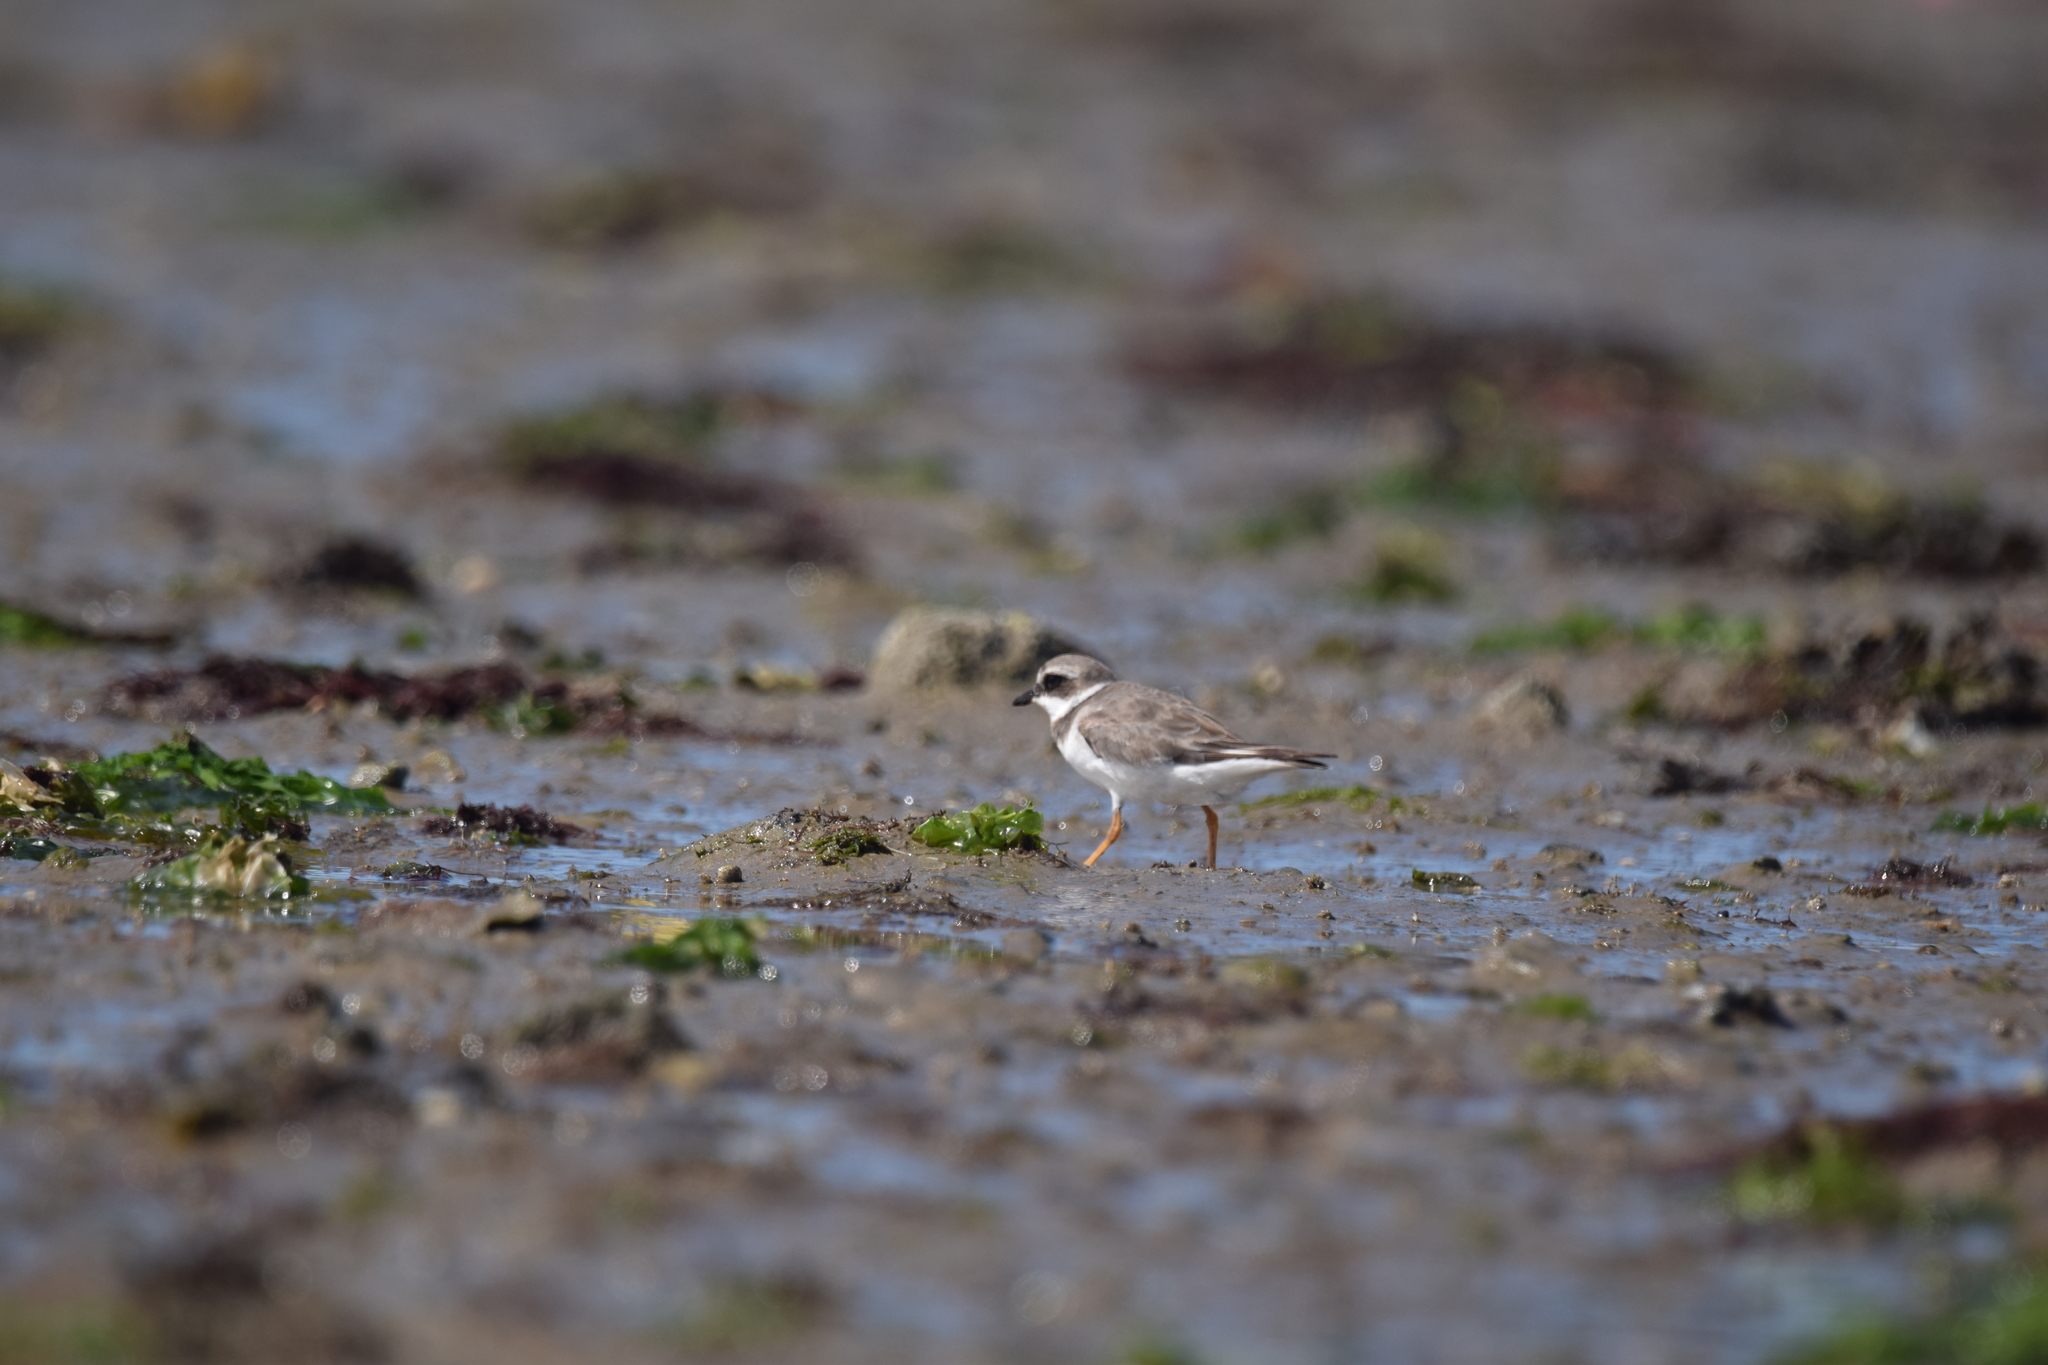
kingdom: Animalia
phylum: Chordata
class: Aves
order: Charadriiformes
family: Charadriidae
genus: Charadrius
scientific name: Charadrius hiaticula
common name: Common ringed plover
